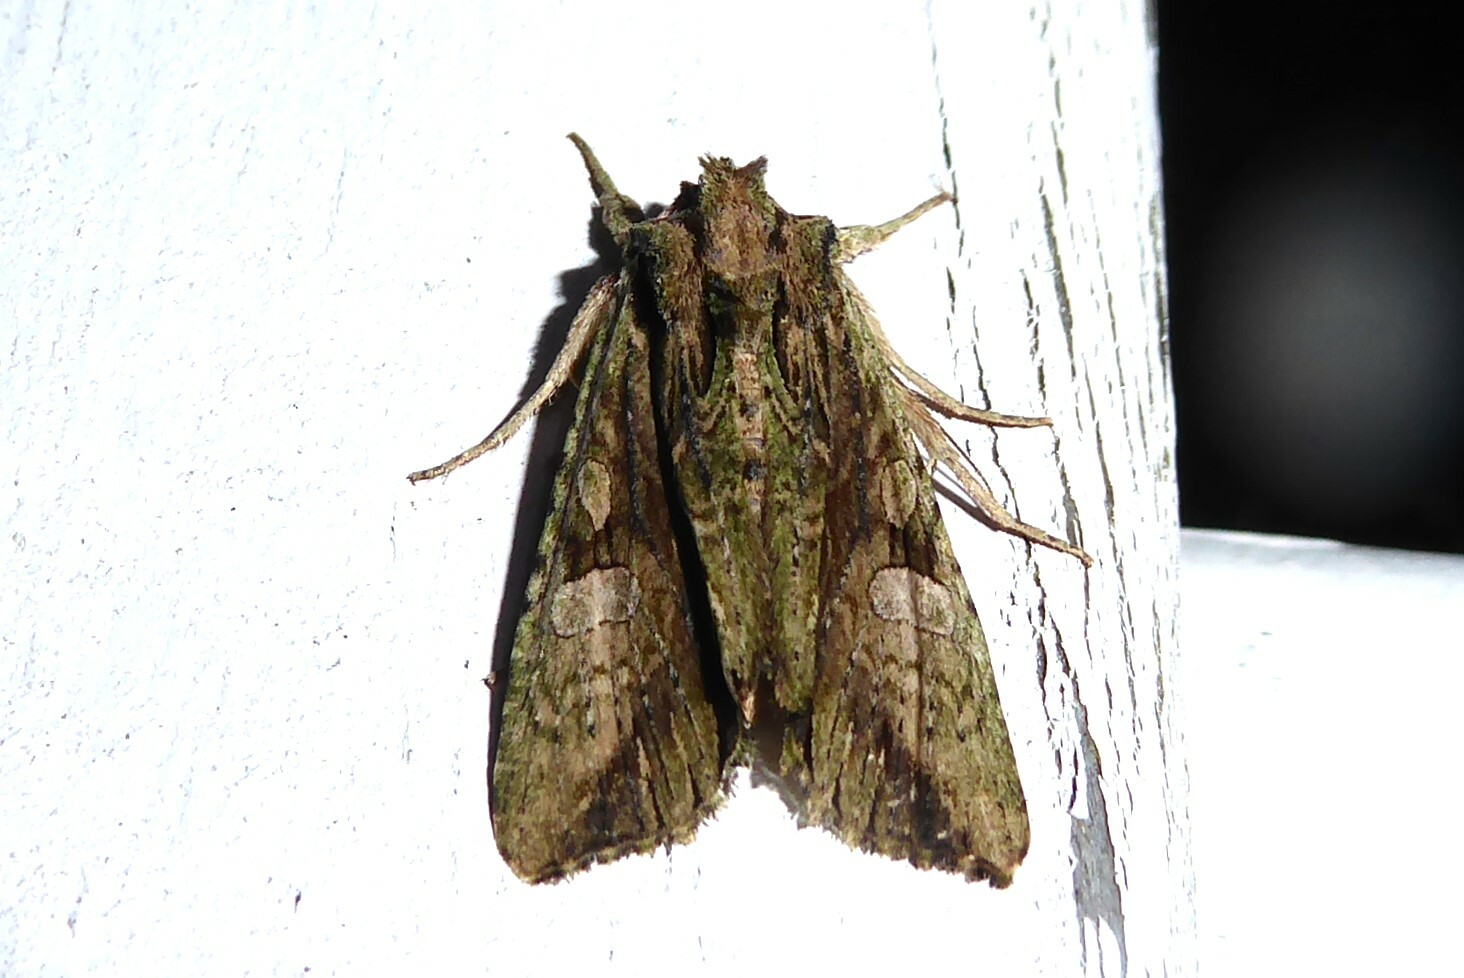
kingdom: Animalia
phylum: Arthropoda
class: Insecta
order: Lepidoptera
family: Noctuidae
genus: Meterana
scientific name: Meterana decorata
